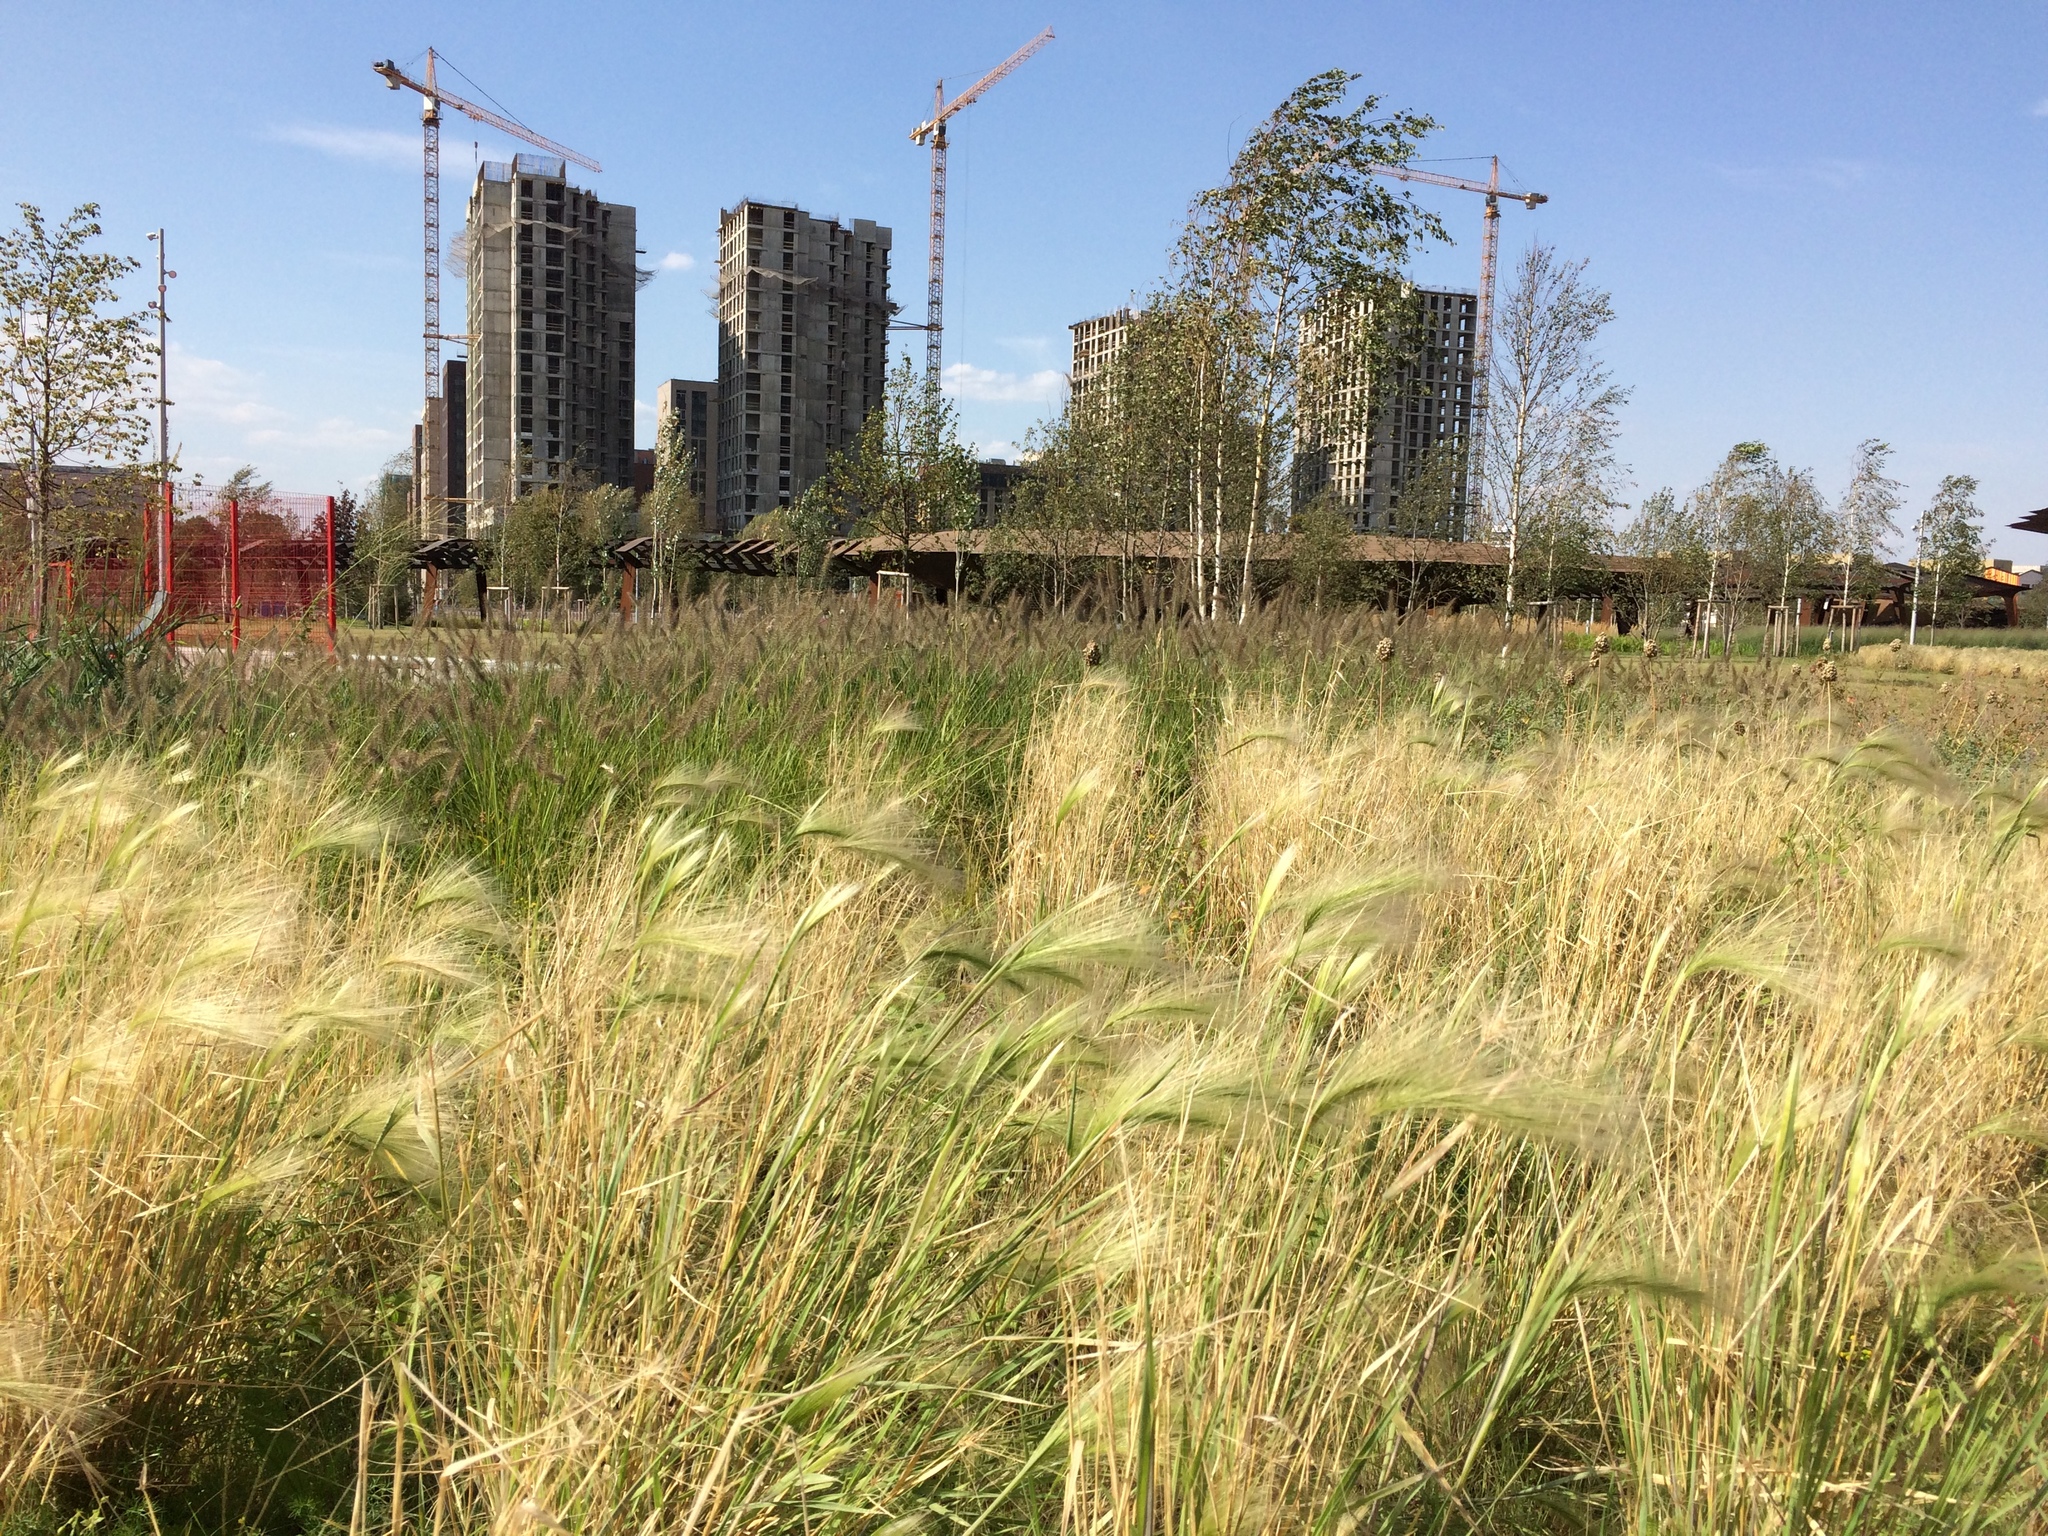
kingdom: Plantae
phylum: Tracheophyta
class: Liliopsida
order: Poales
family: Poaceae
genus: Hordeum
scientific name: Hordeum jubatum
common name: Foxtail barley
